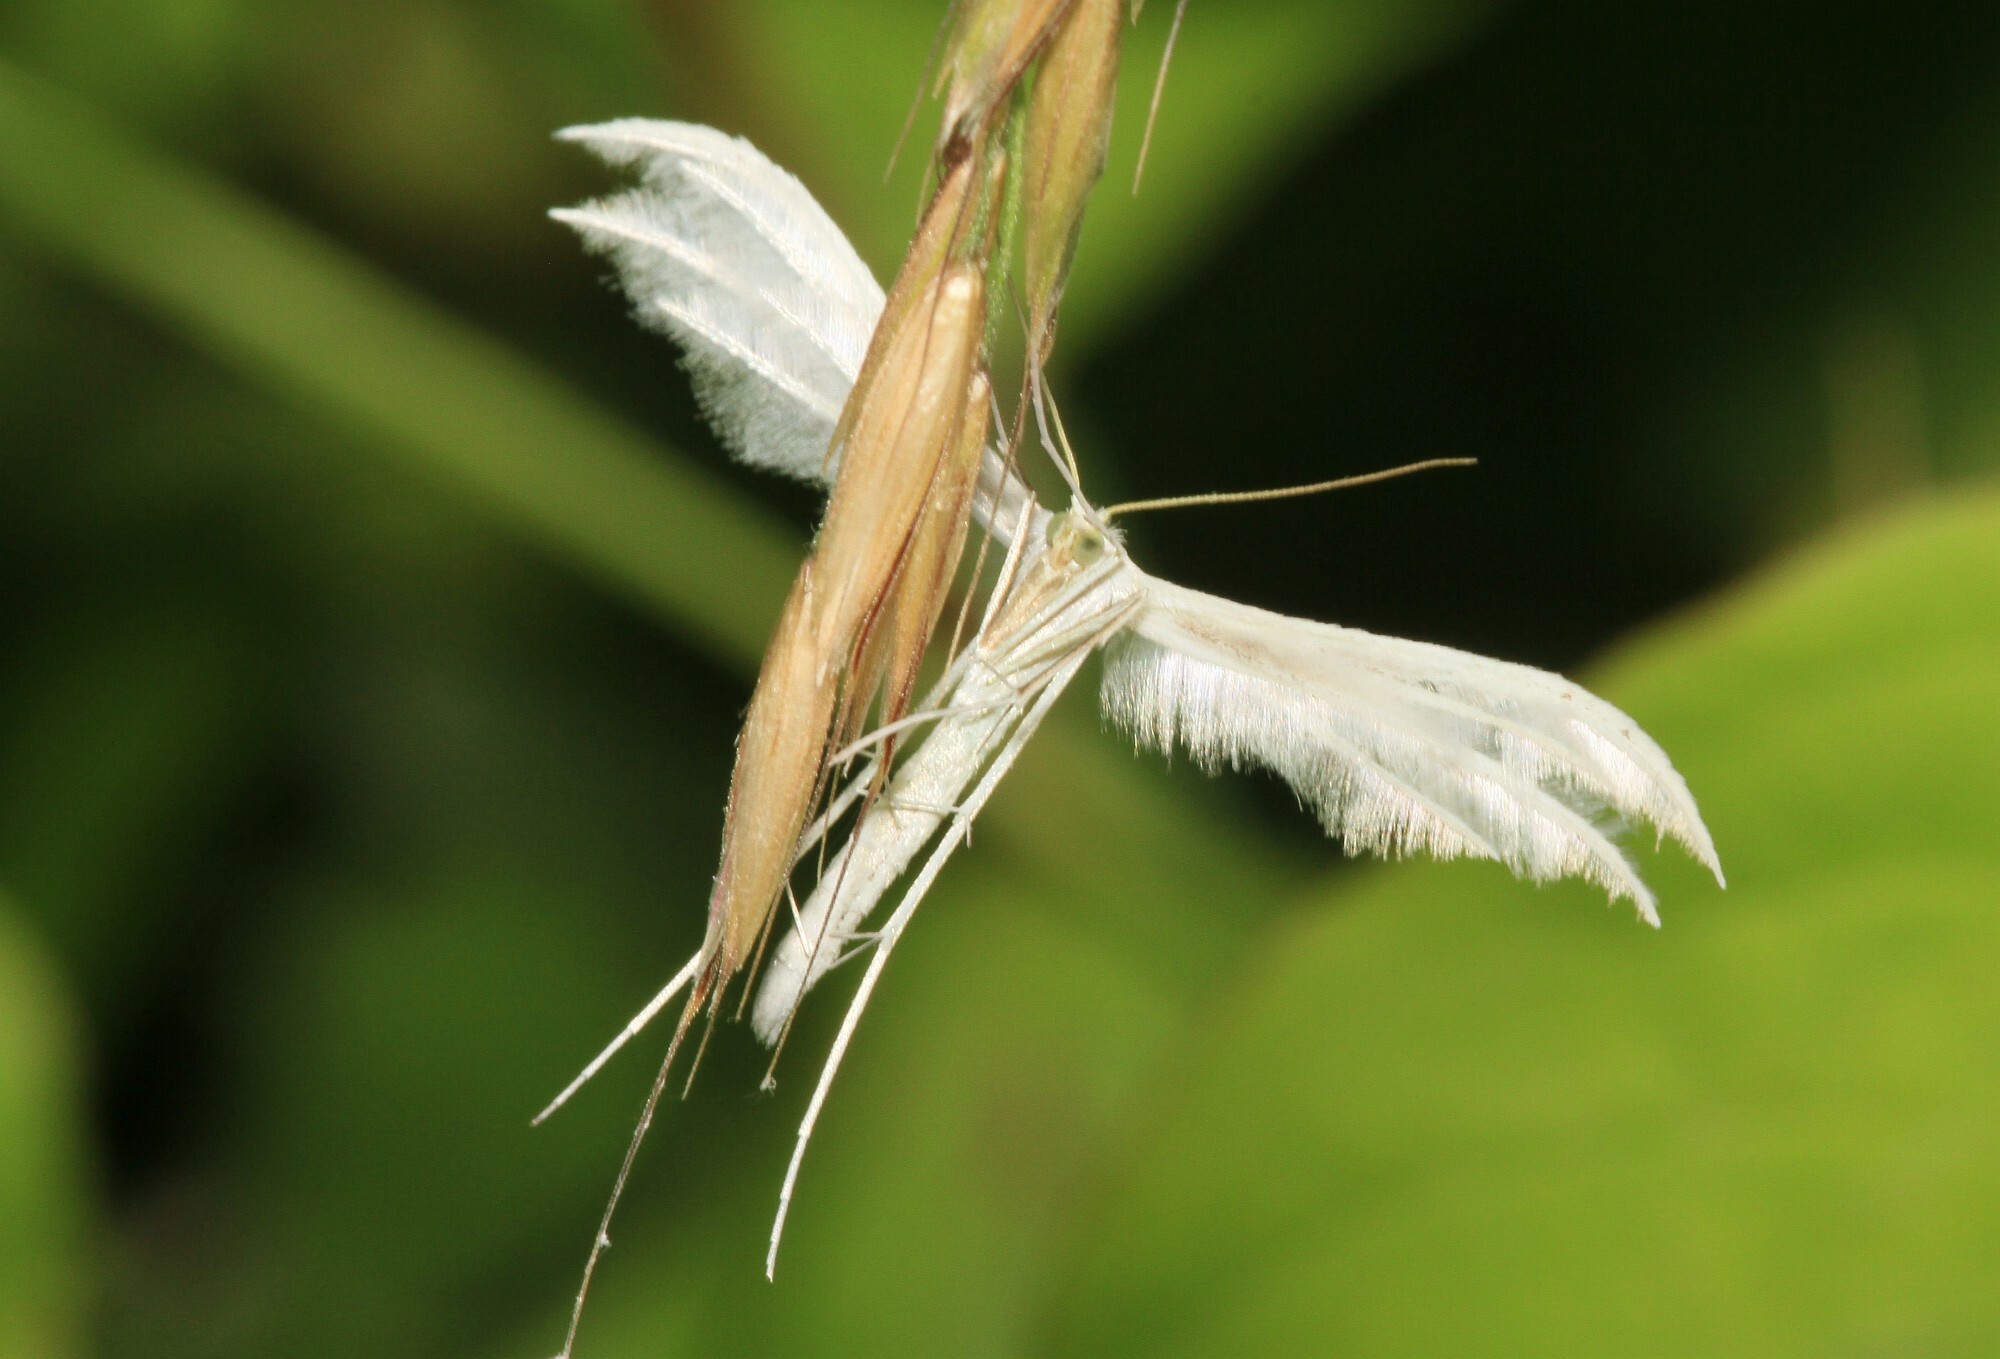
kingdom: Animalia
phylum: Arthropoda
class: Insecta
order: Lepidoptera
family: Pterophoridae
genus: Pterophorus
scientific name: Pterophorus pentadactyla
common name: White plume moth
